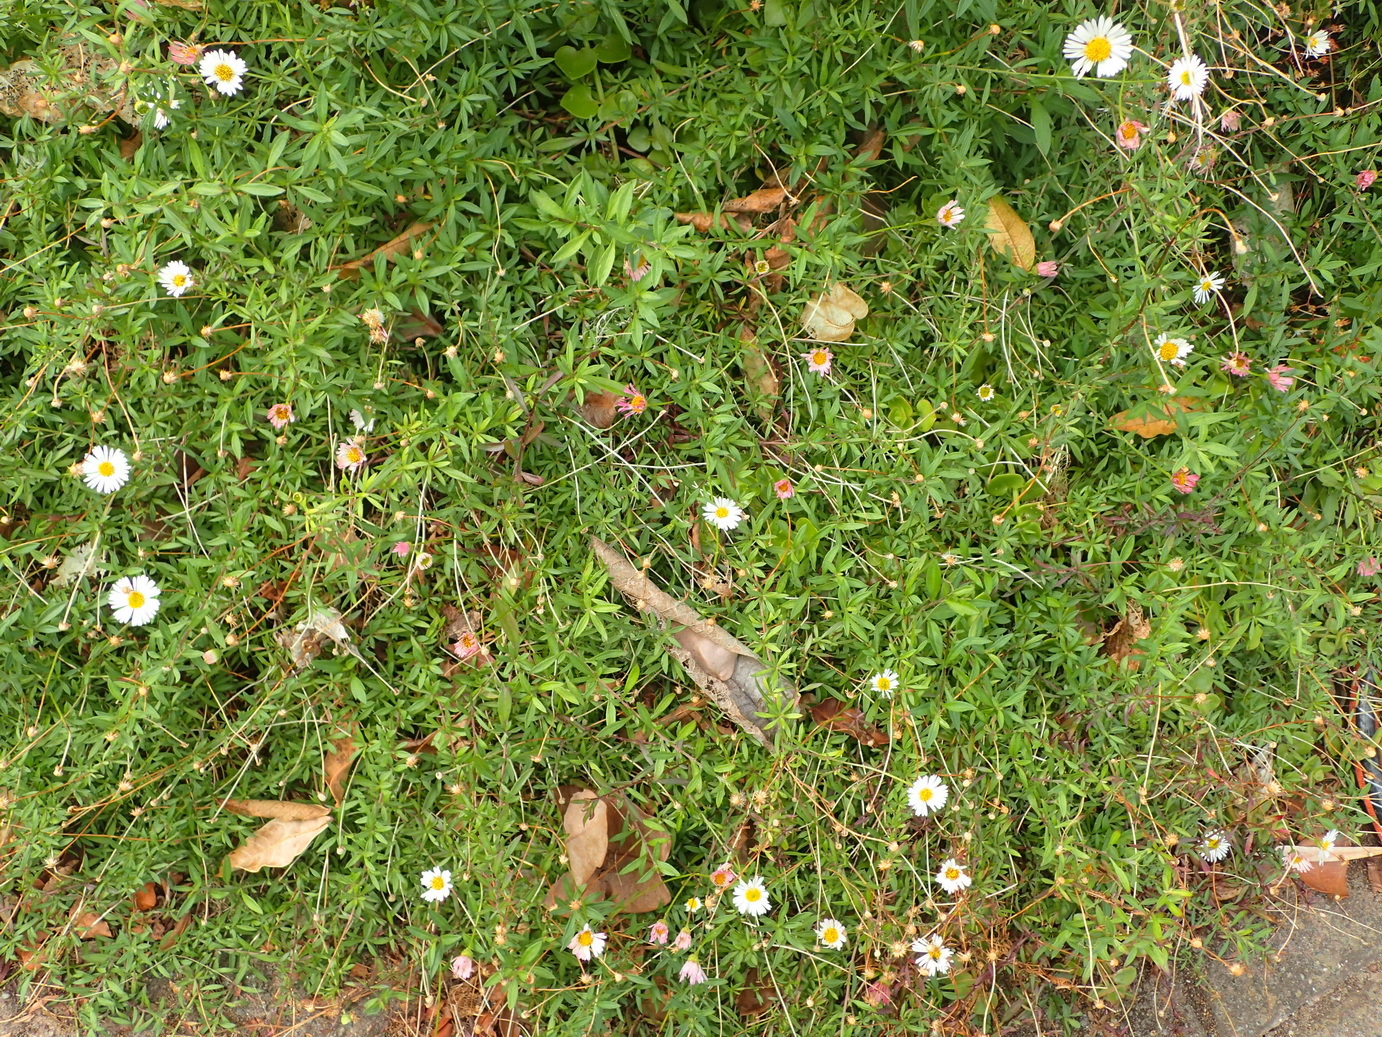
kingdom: Plantae
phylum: Tracheophyta
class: Magnoliopsida
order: Asterales
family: Asteraceae
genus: Erigeron
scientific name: Erigeron karvinskianus
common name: Mexican fleabane
